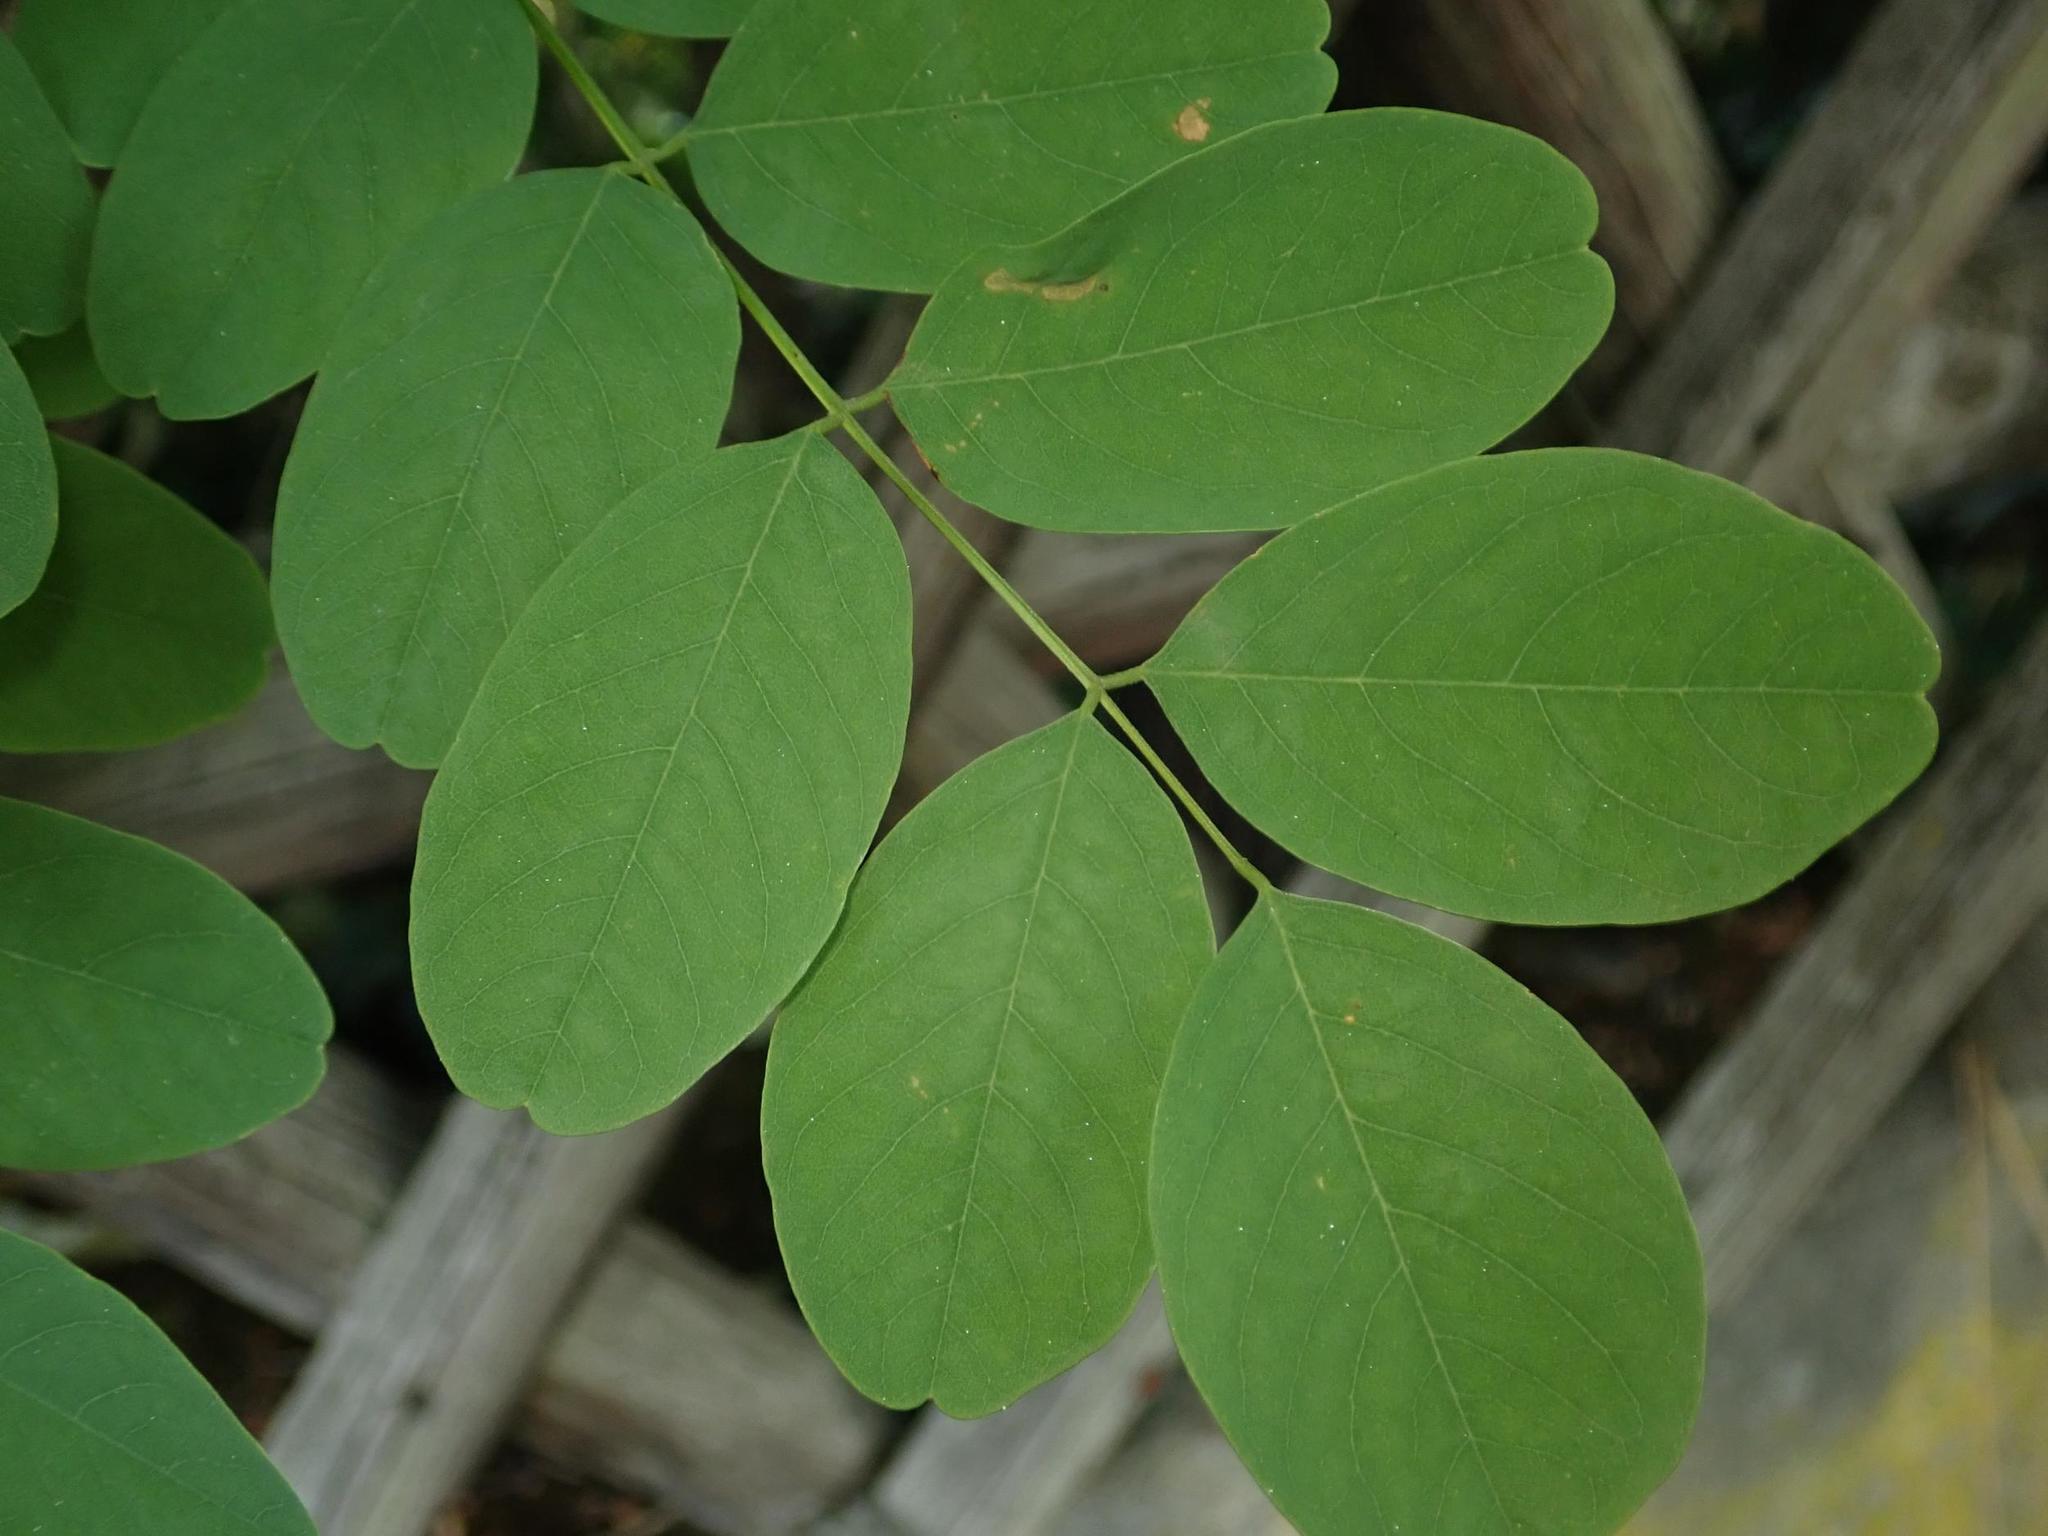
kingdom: Plantae
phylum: Tracheophyta
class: Magnoliopsida
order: Fabales
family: Fabaceae
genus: Robinia
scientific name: Robinia pseudoacacia
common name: Black locust
